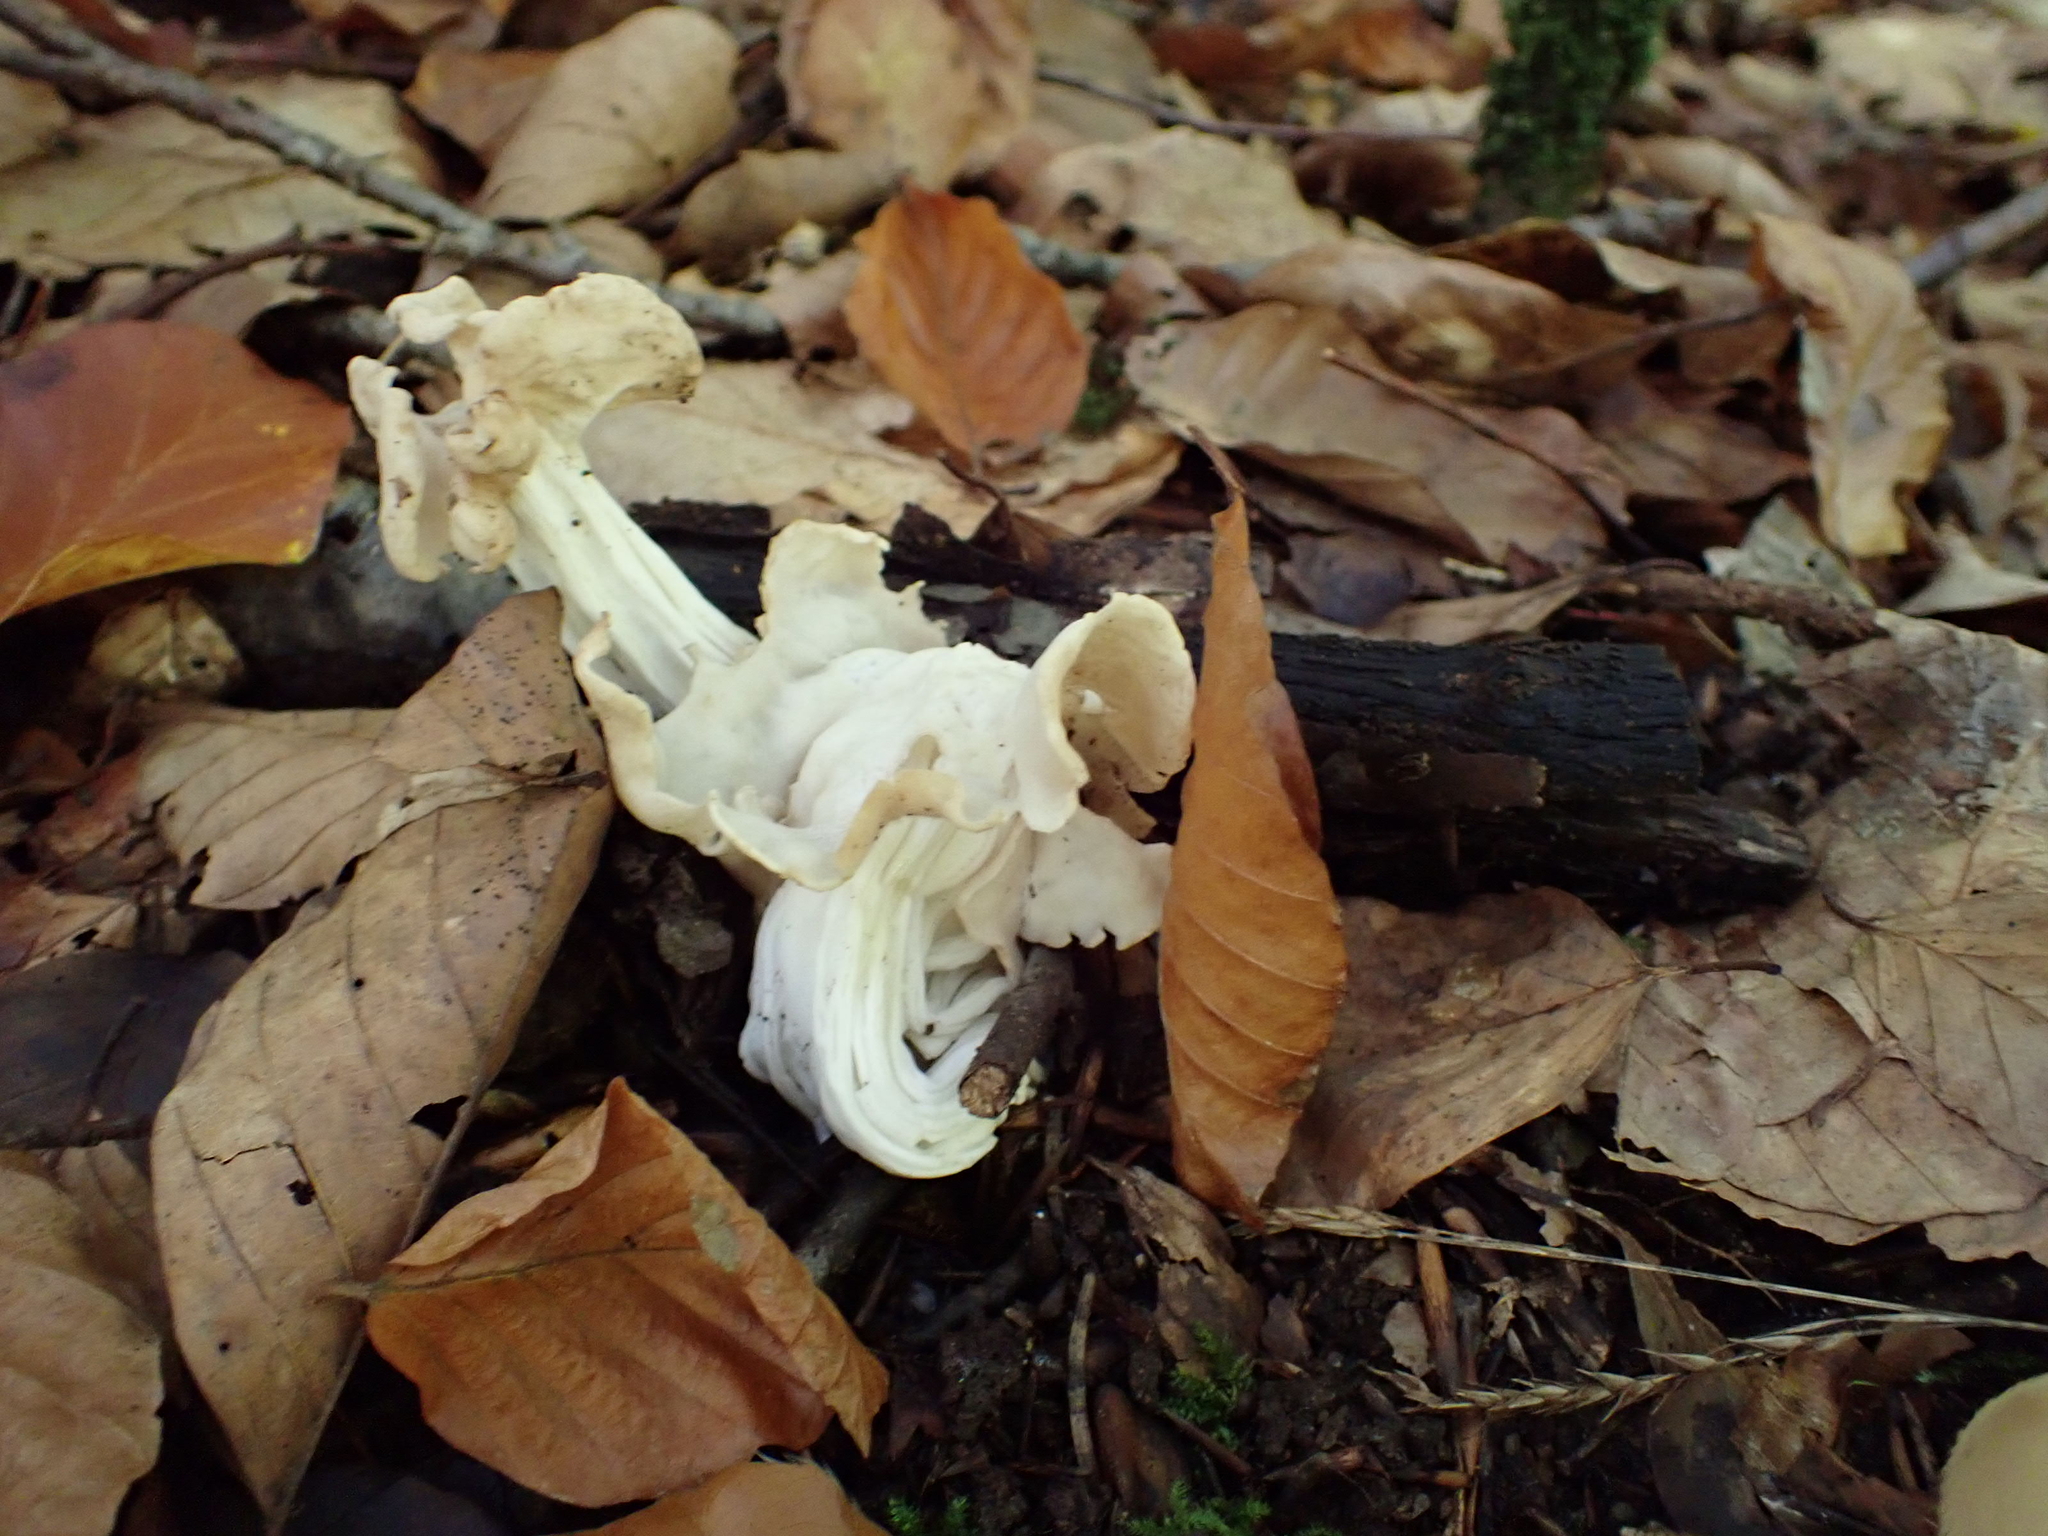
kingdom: Fungi
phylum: Ascomycota
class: Pezizomycetes
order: Pezizales
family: Helvellaceae
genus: Helvella
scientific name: Helvella crispa
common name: White saddle
